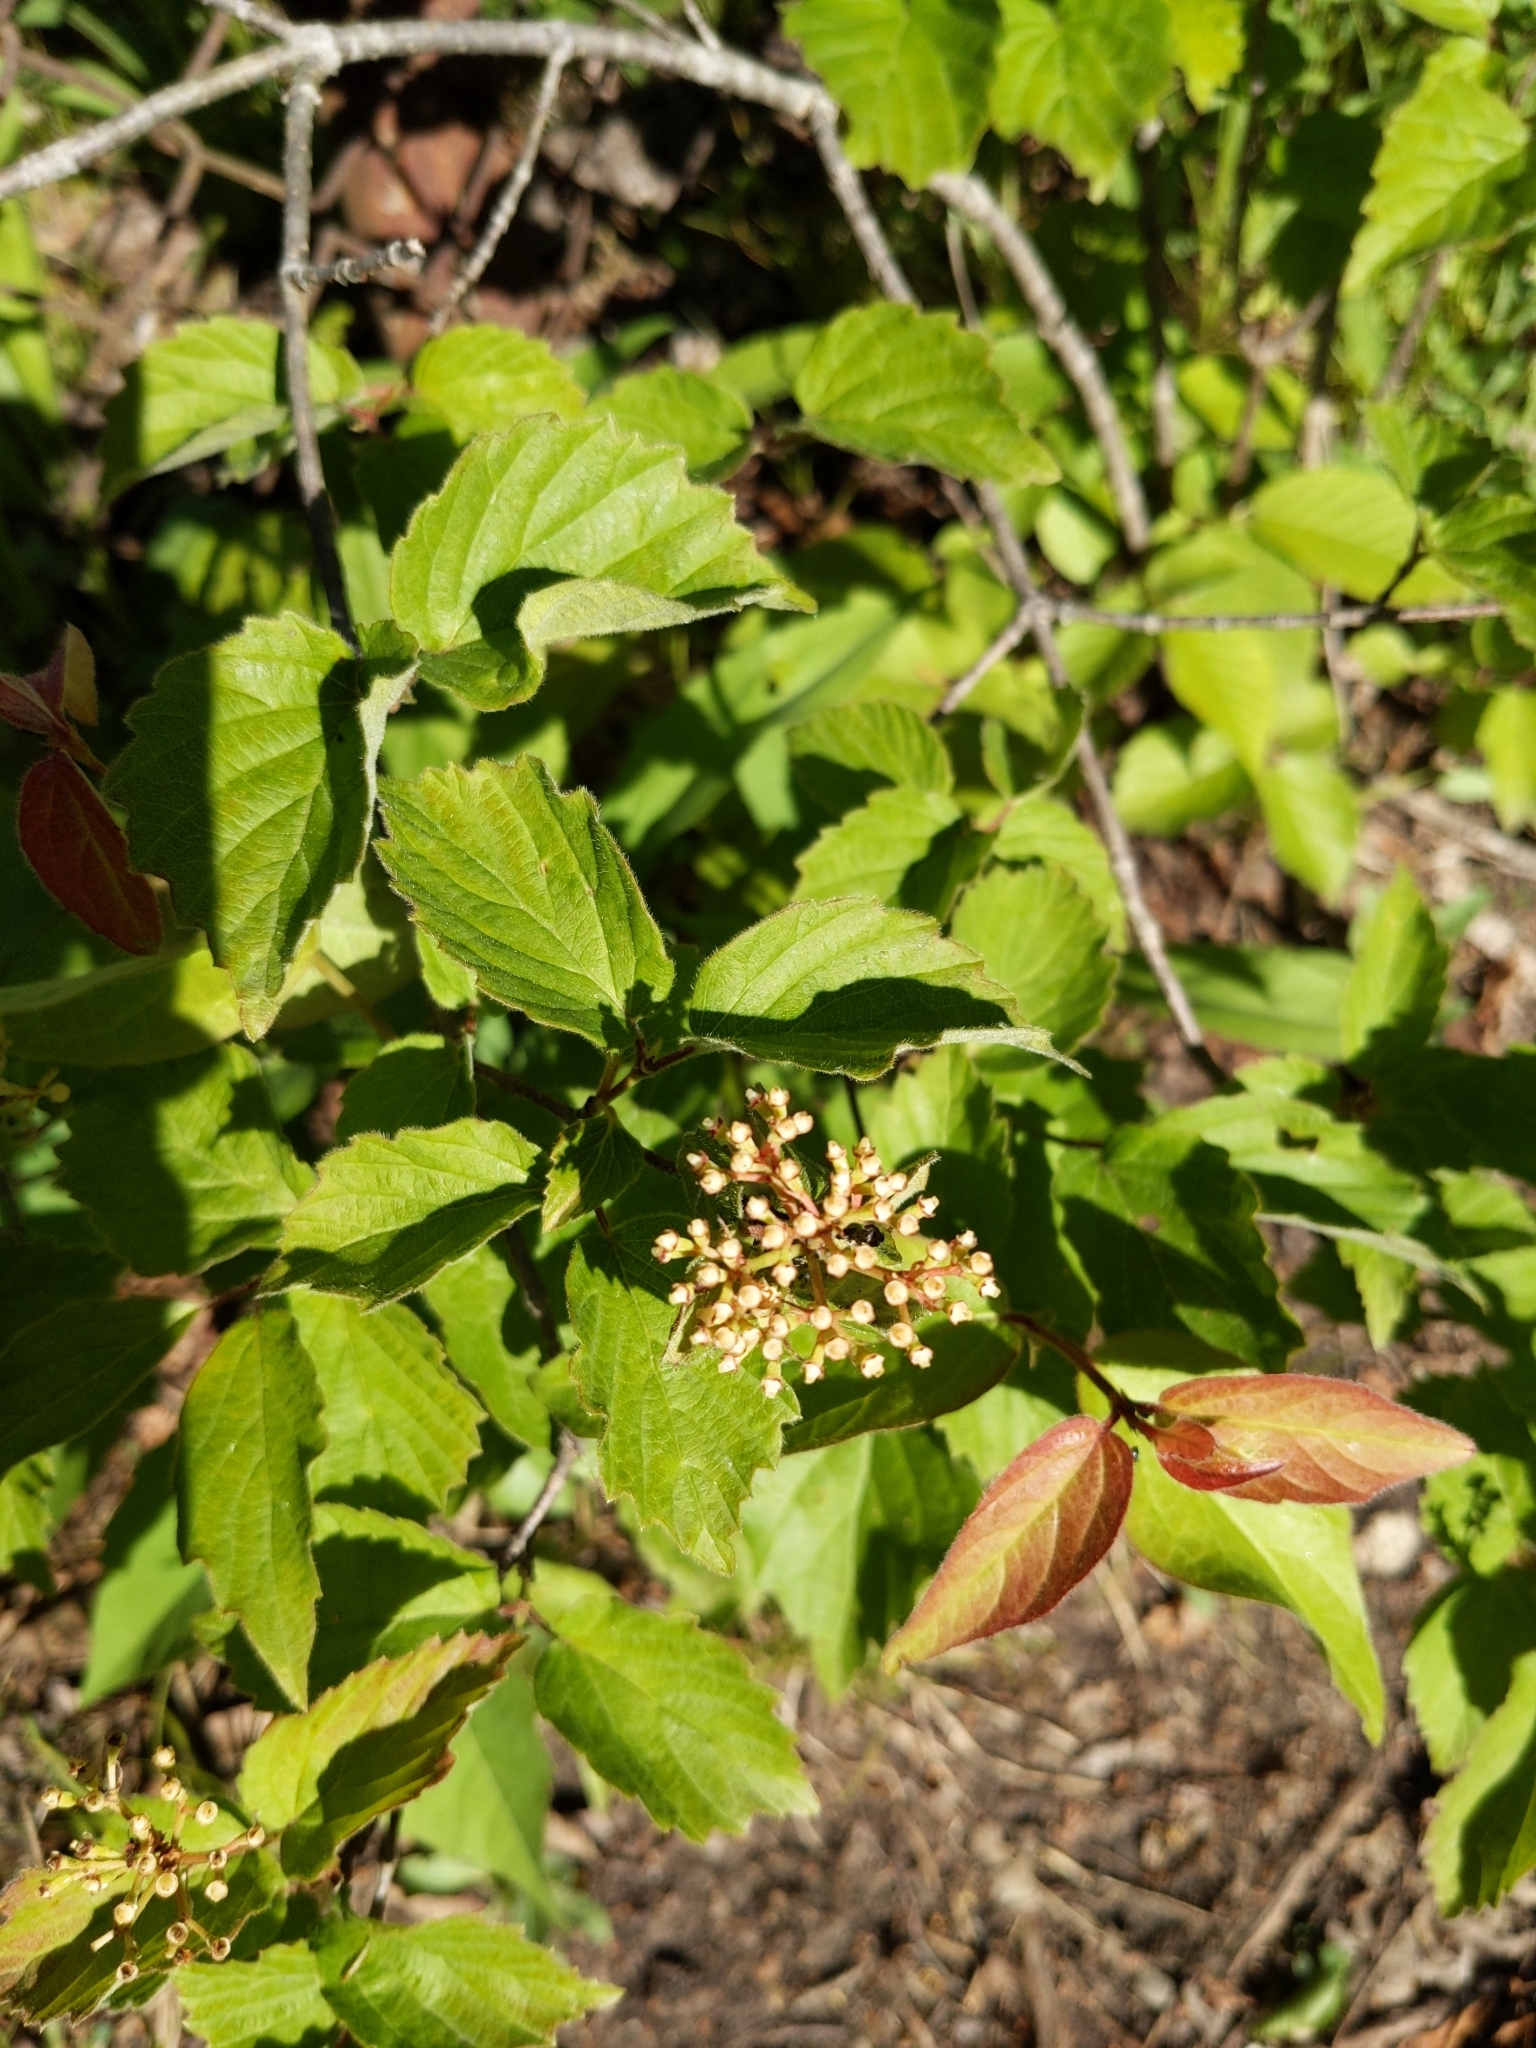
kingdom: Plantae
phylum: Tracheophyta
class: Magnoliopsida
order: Dipsacales
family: Viburnaceae
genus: Viburnum
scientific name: Viburnum rafinesqueanum
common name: Downy arrow-wood
